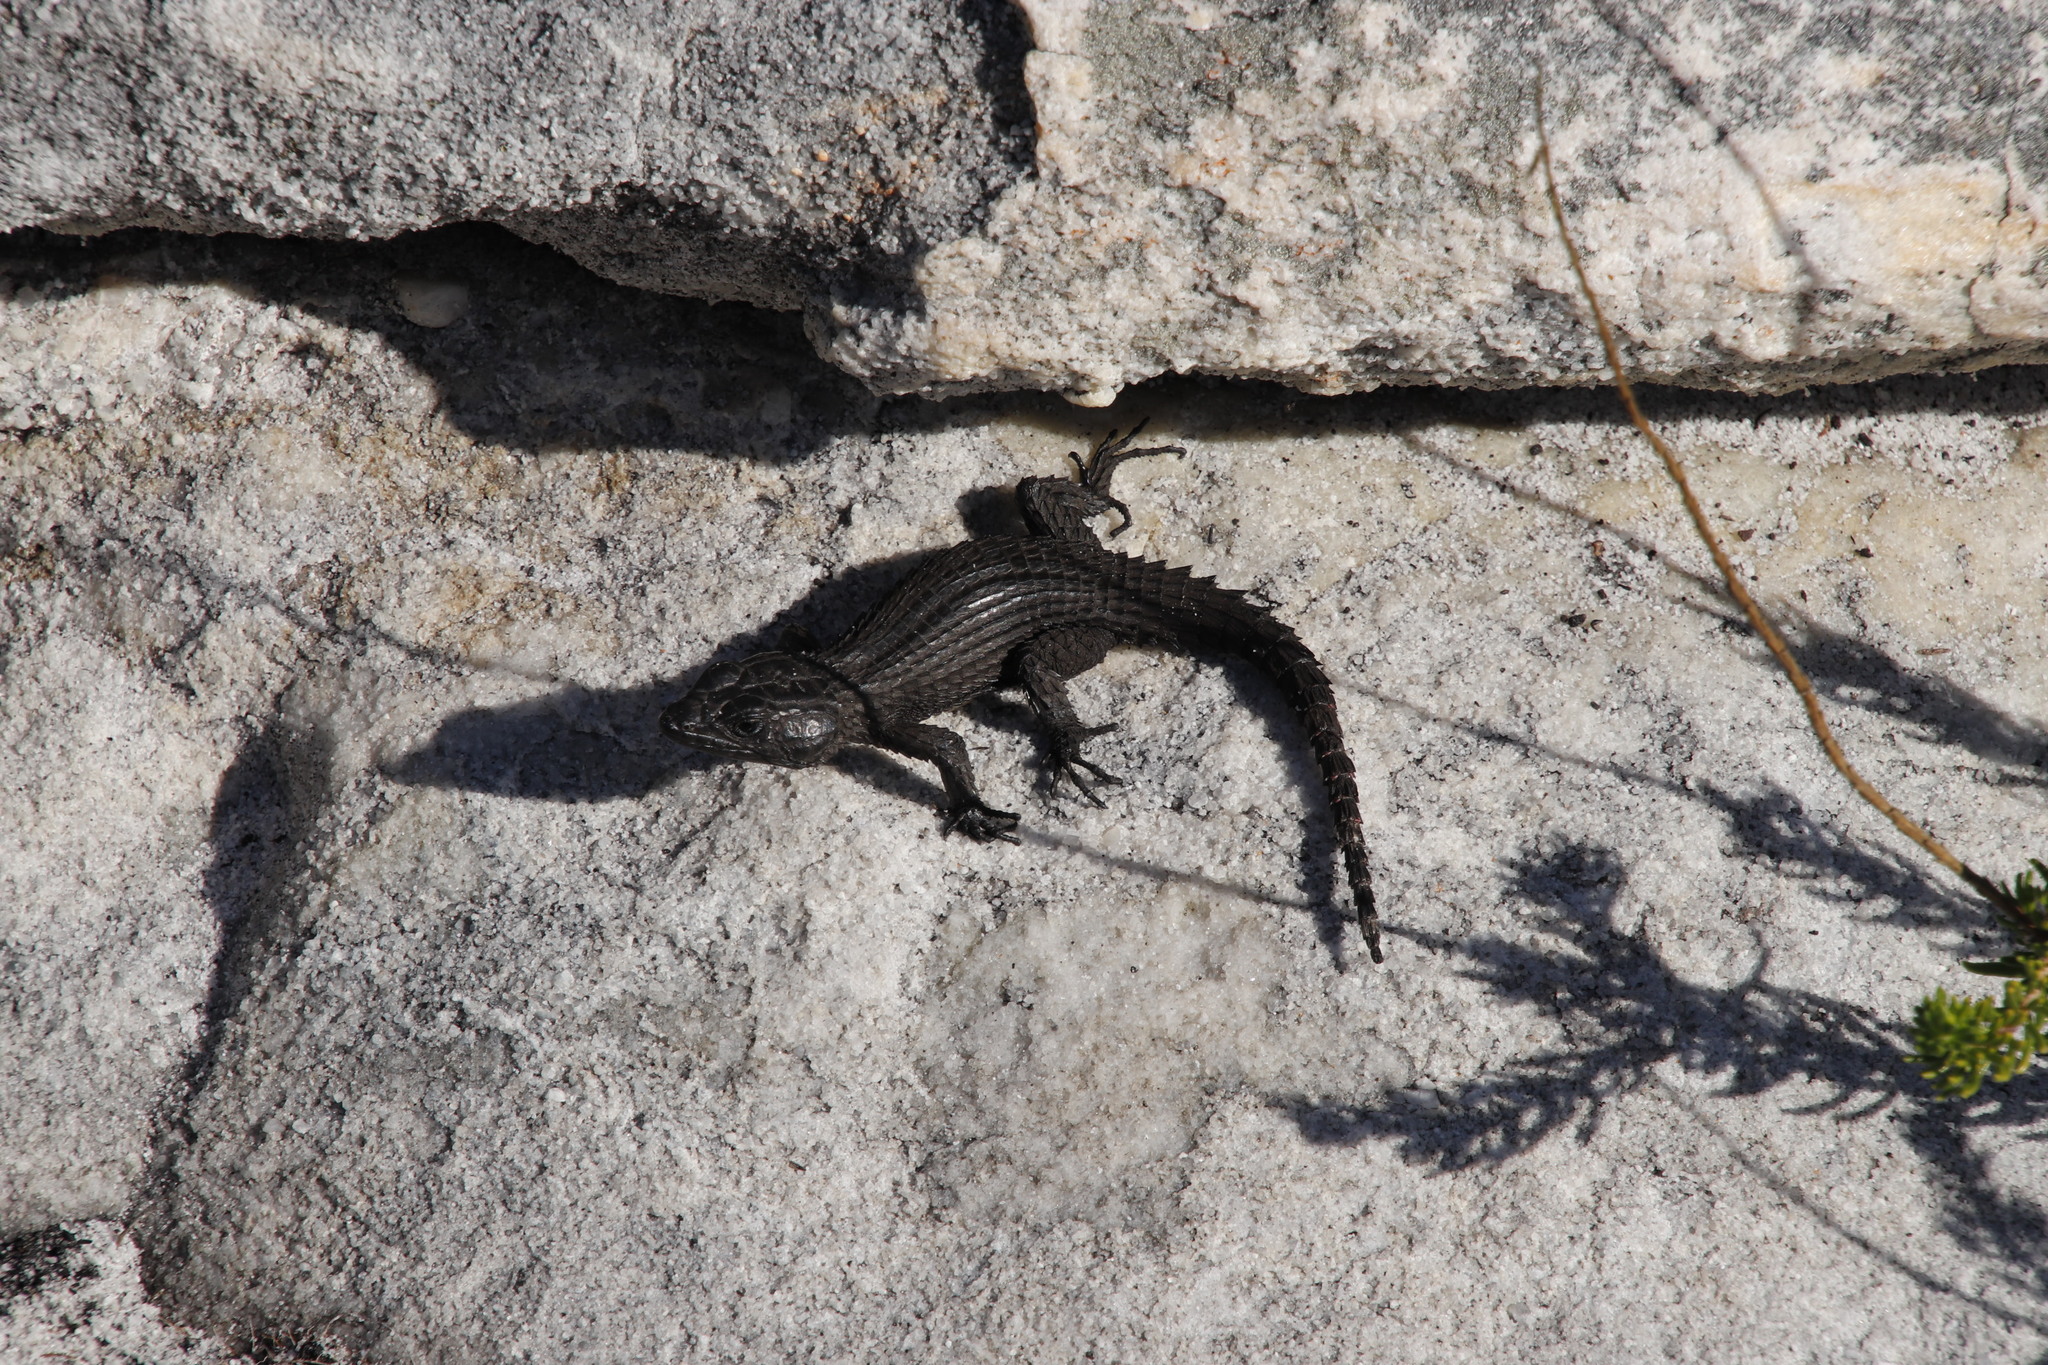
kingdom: Animalia
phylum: Chordata
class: Squamata
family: Cordylidae
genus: Cordylus
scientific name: Cordylus niger
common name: Black girdled lizard
